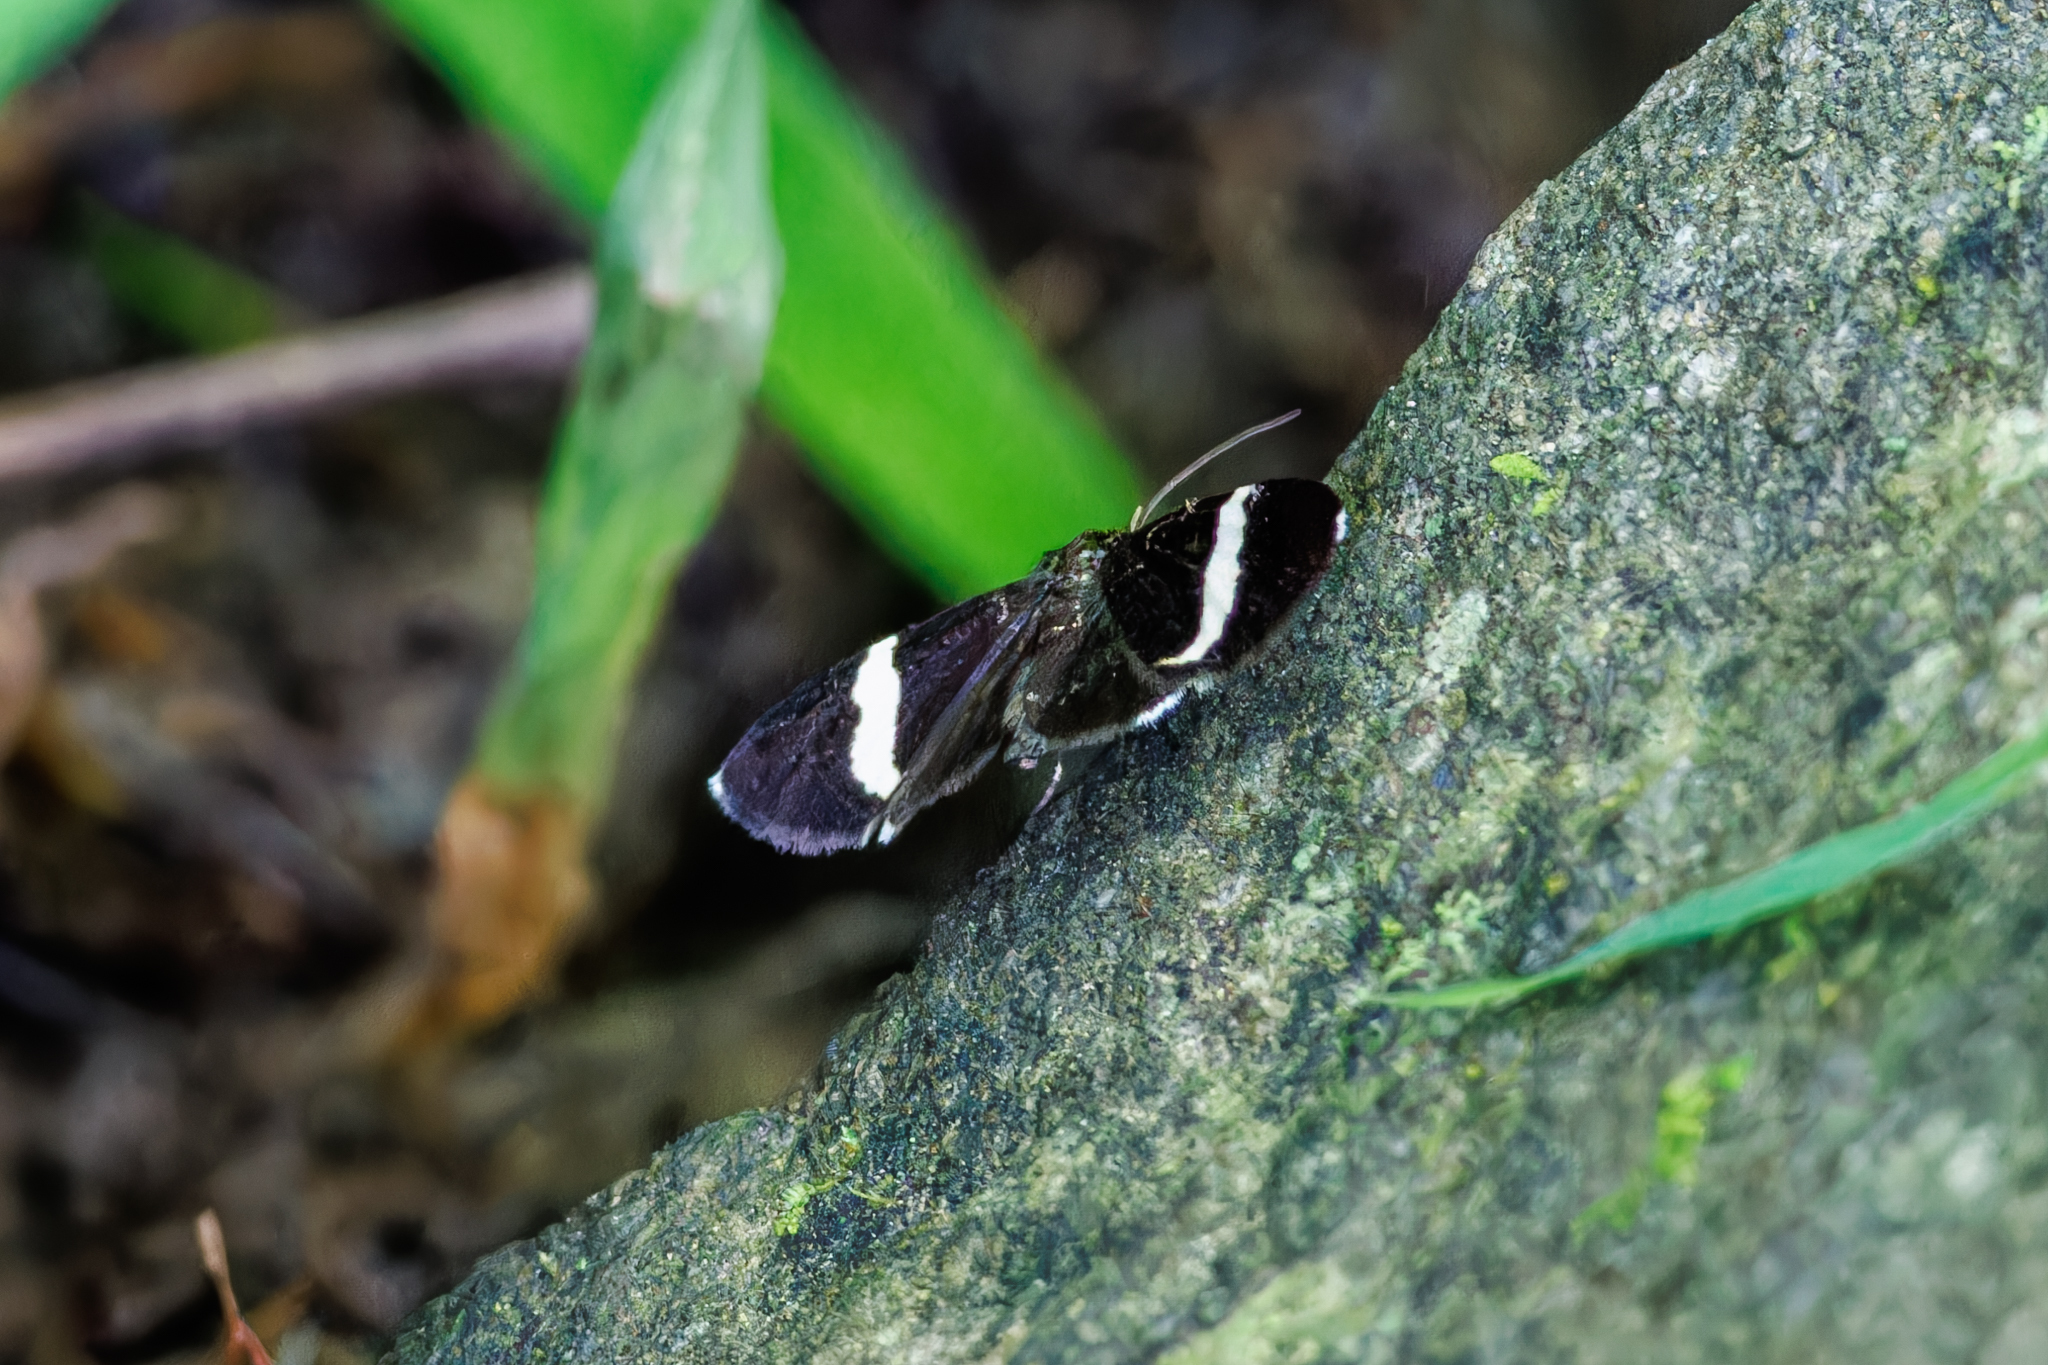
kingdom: Animalia
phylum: Arthropoda
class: Insecta
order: Lepidoptera
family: Geometridae
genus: Trichodezia
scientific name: Trichodezia albovittata
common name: White striped black
